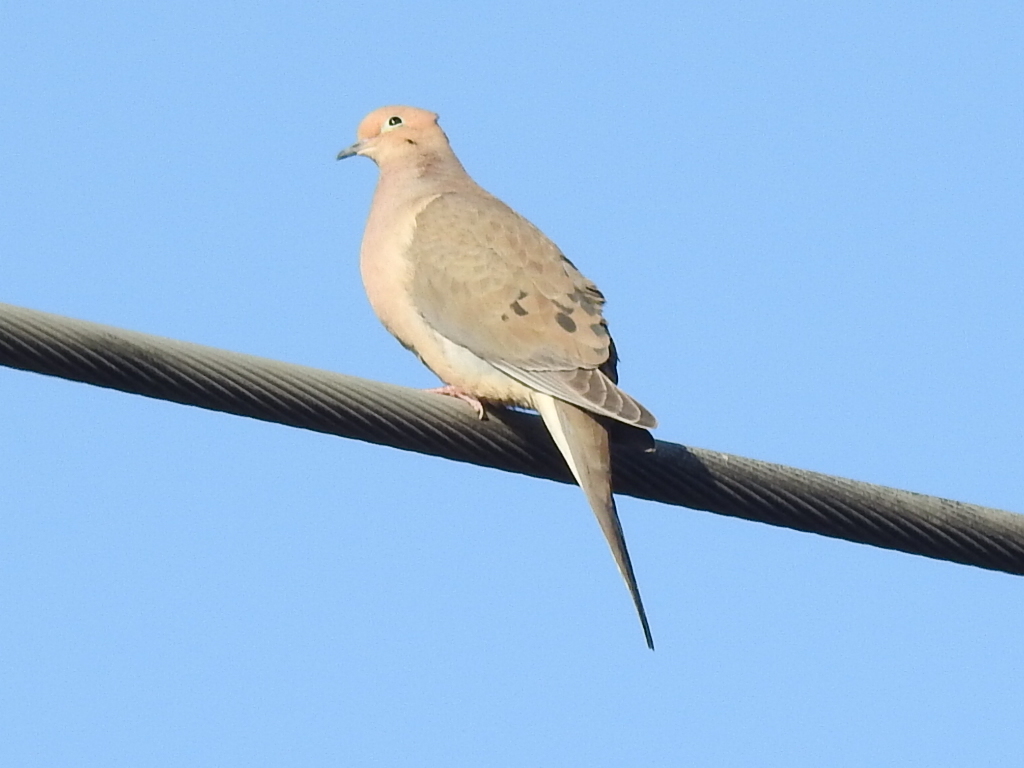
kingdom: Animalia
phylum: Chordata
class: Aves
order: Columbiformes
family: Columbidae
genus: Zenaida
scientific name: Zenaida macroura
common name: Mourning dove
